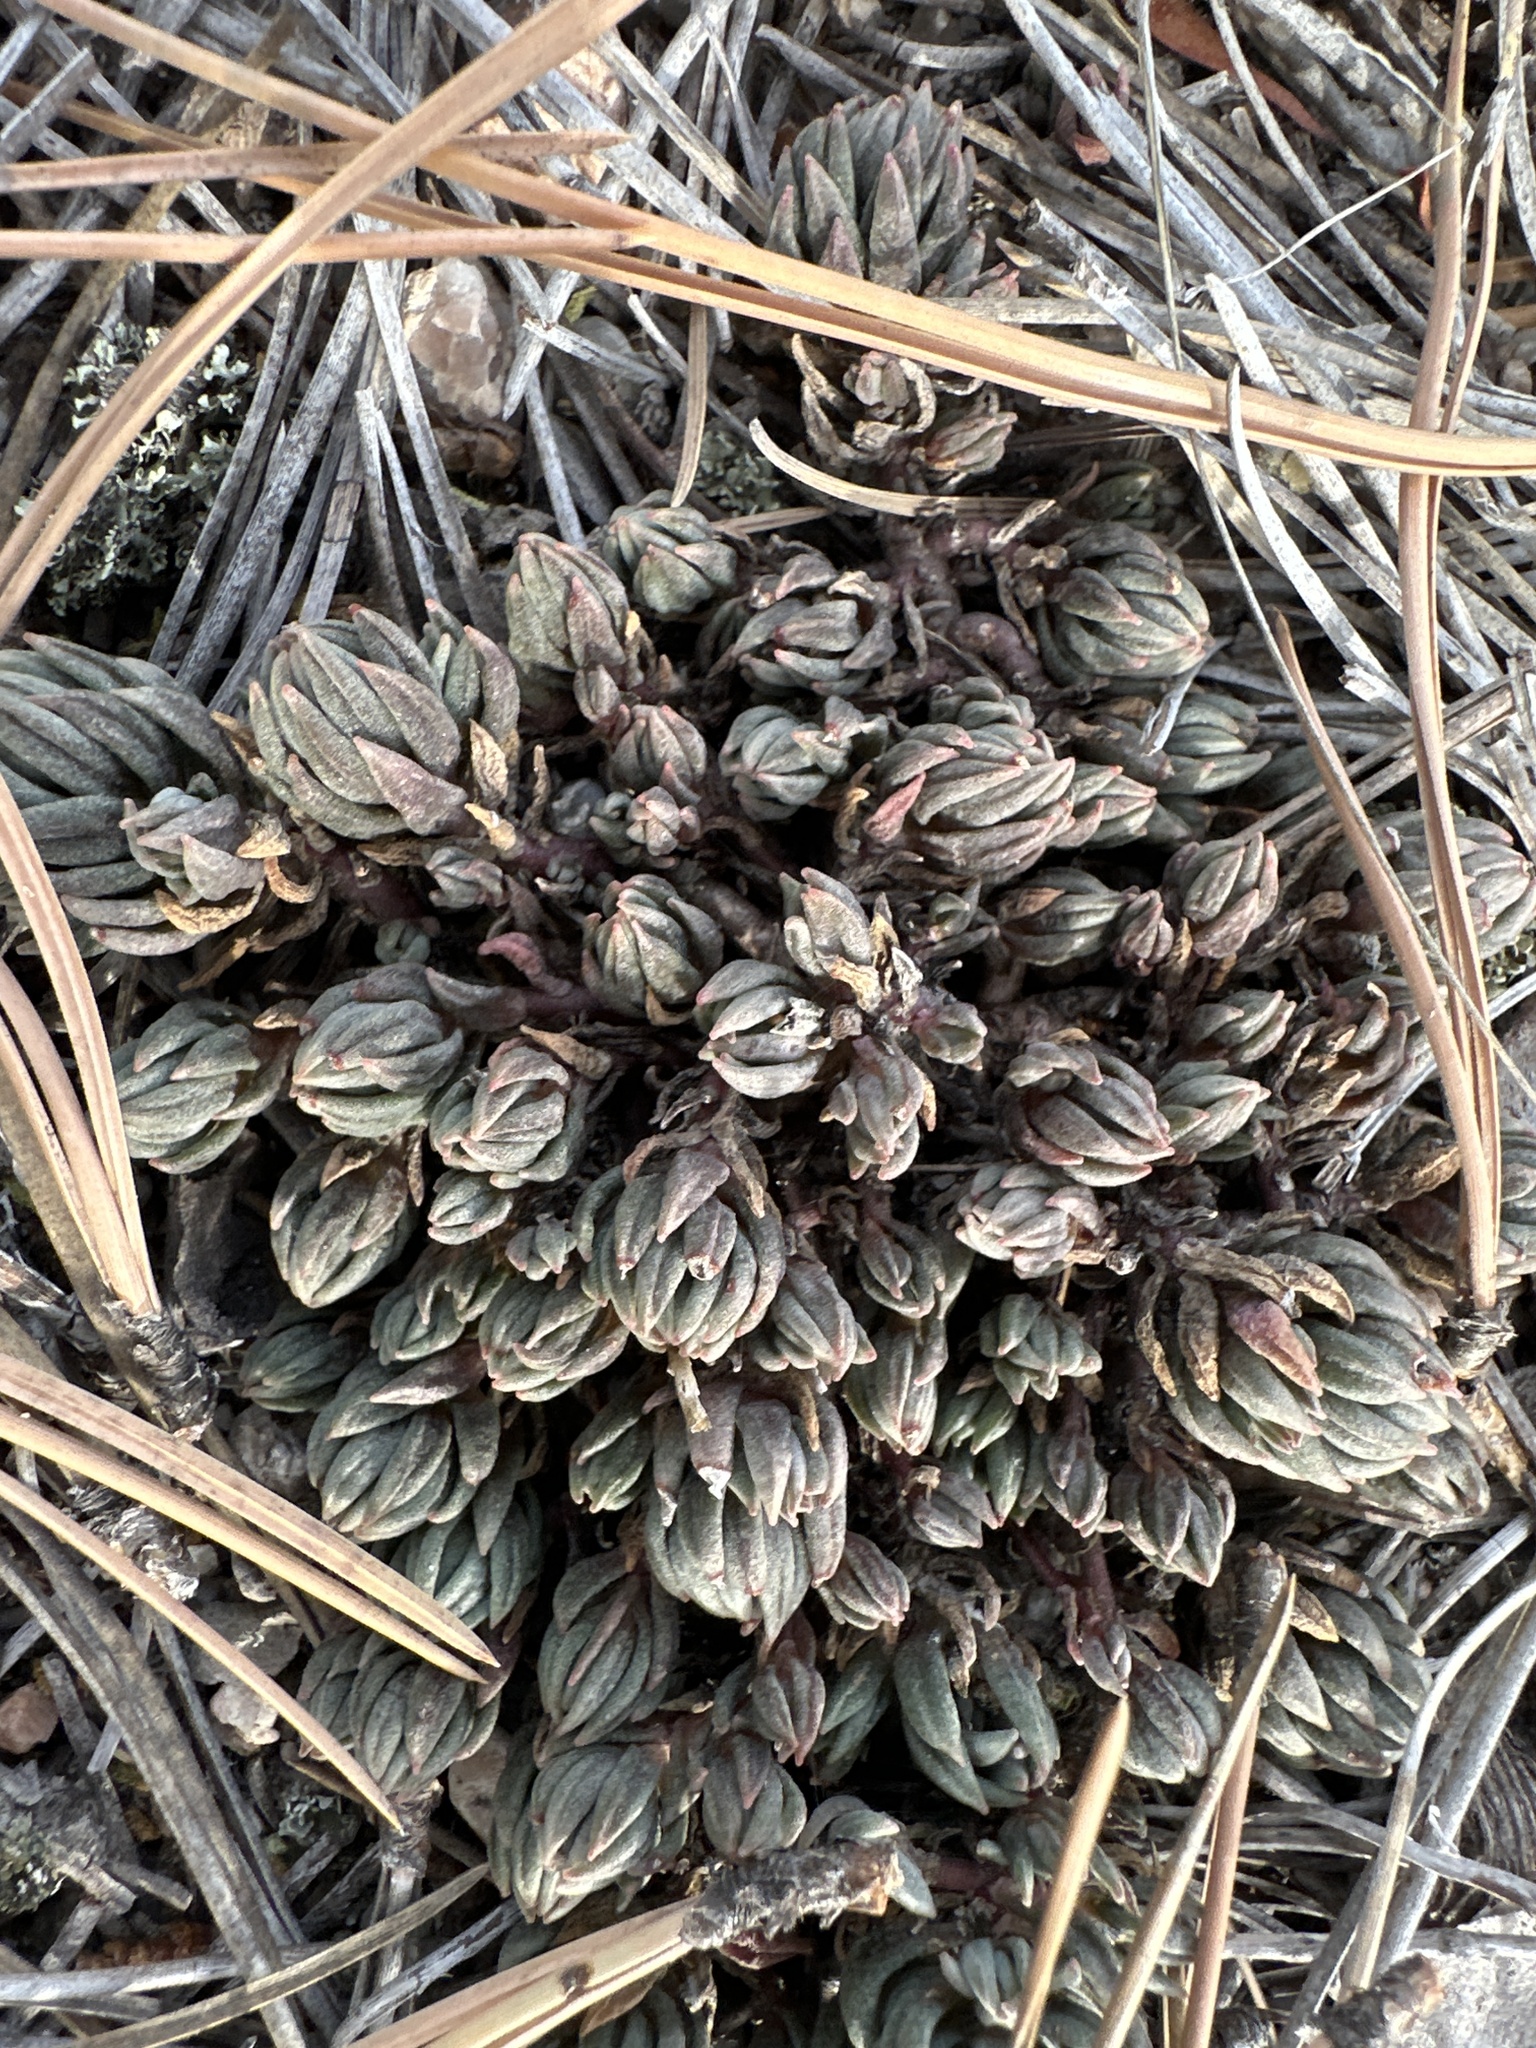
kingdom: Plantae
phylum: Tracheophyta
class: Magnoliopsida
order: Saxifragales
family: Crassulaceae
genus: Sedum
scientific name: Sedum lanceolatum
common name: Common stonecrop
